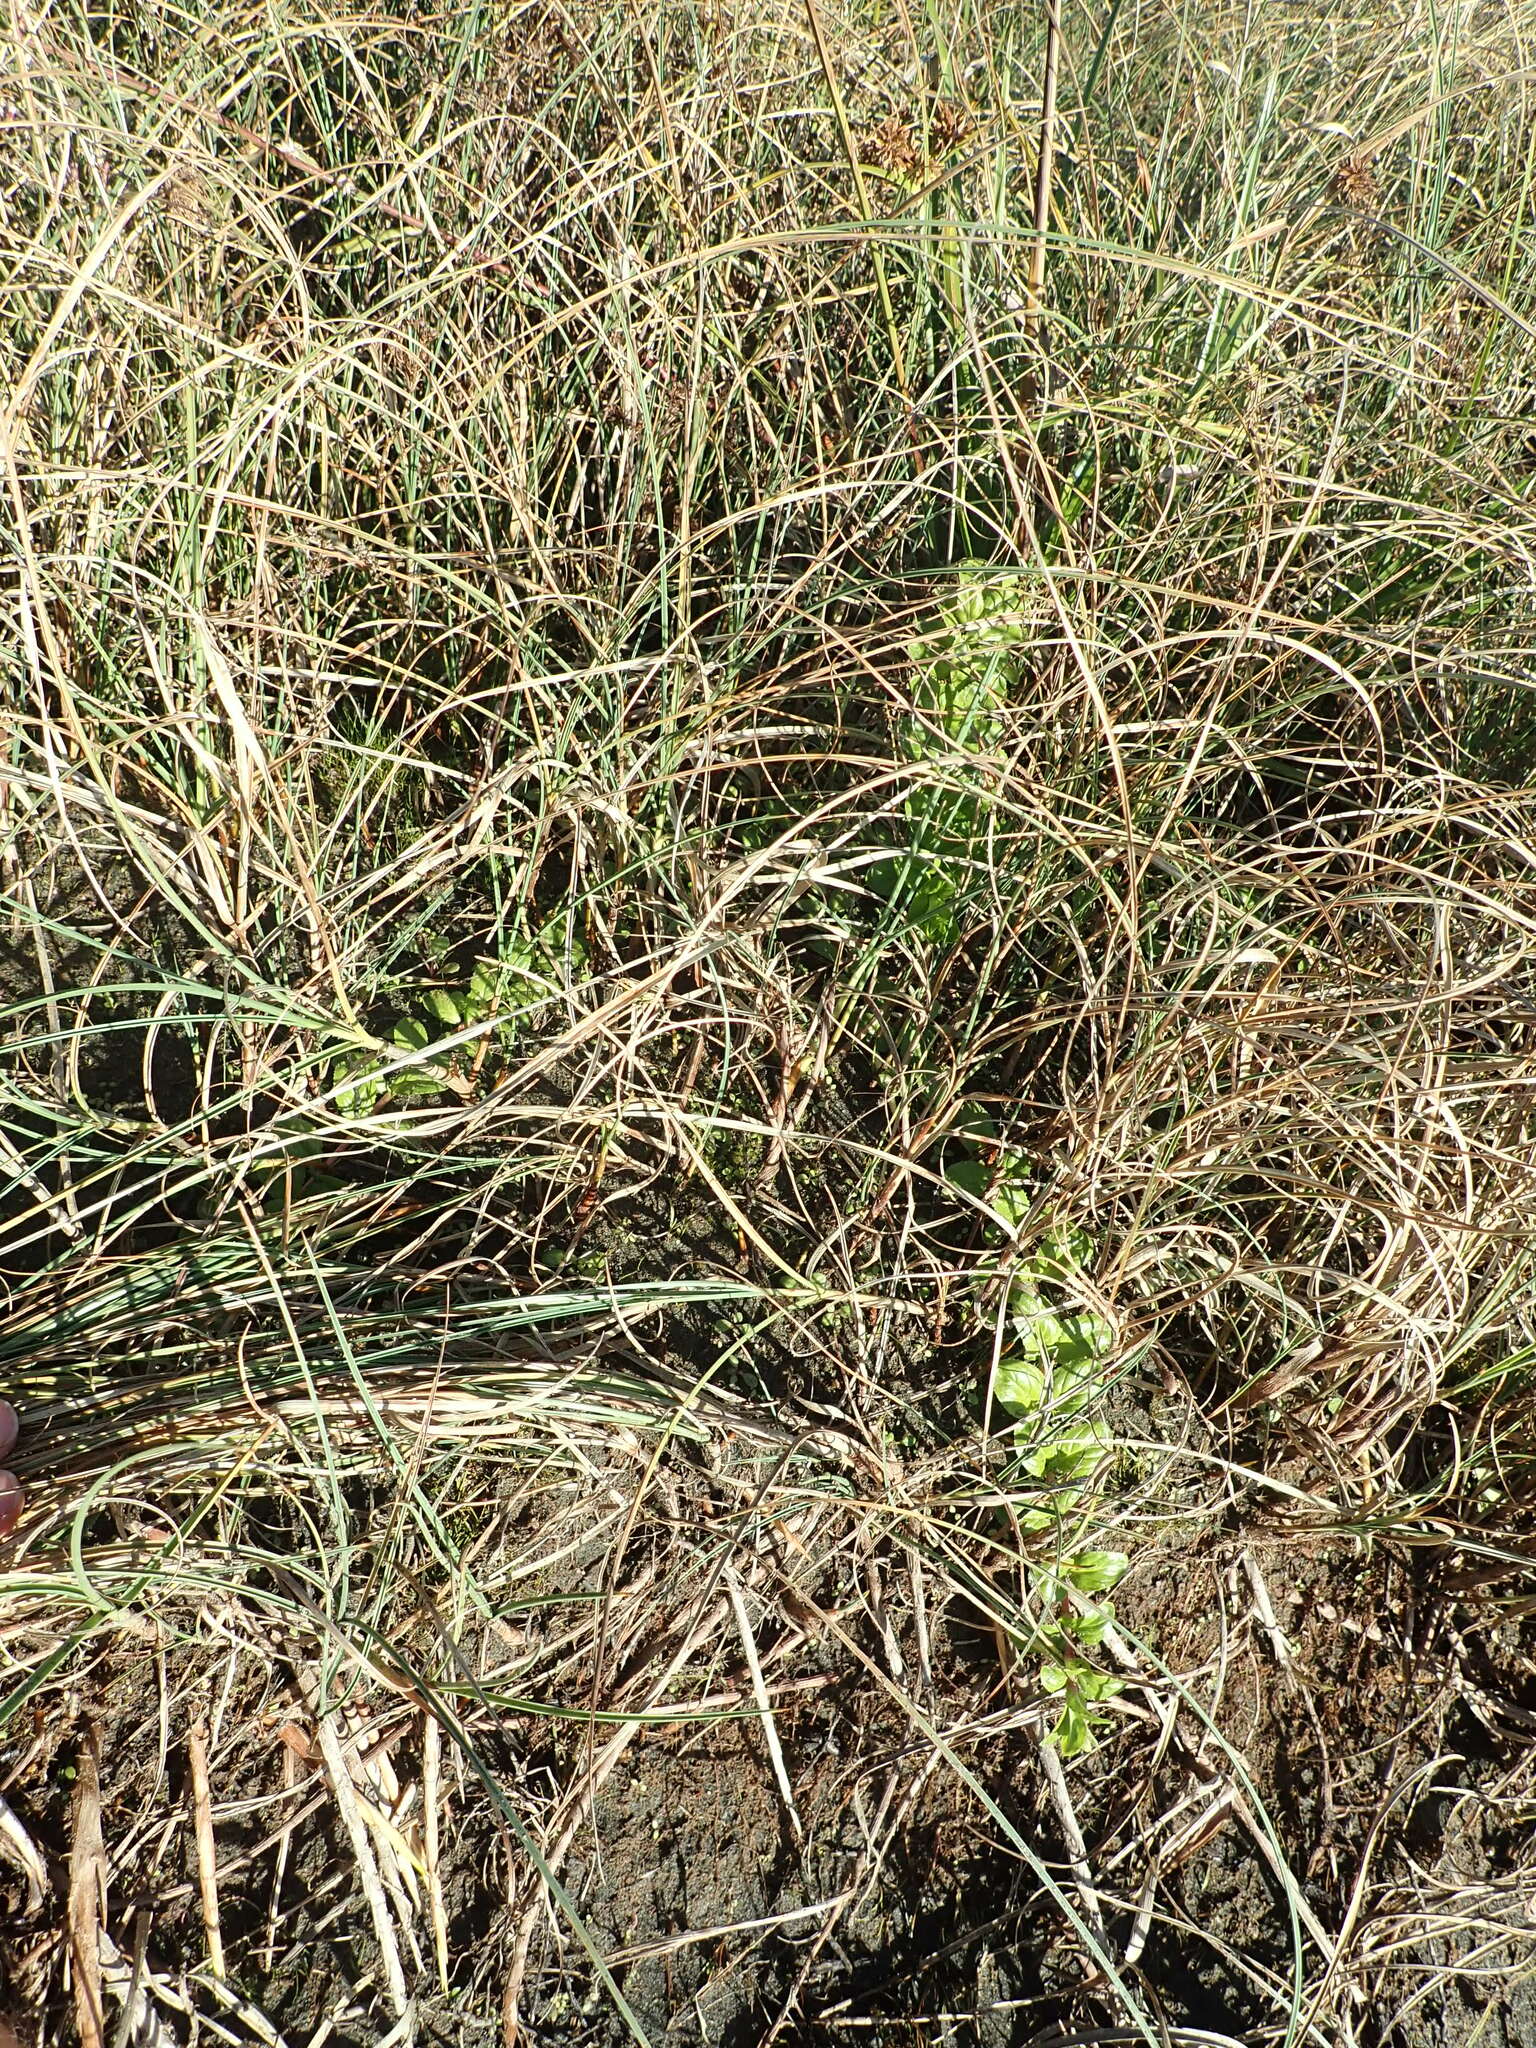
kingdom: Plantae
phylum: Tracheophyta
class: Magnoliopsida
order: Myrtales
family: Onagraceae
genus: Epilobium
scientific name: Epilobium billardiereanum
